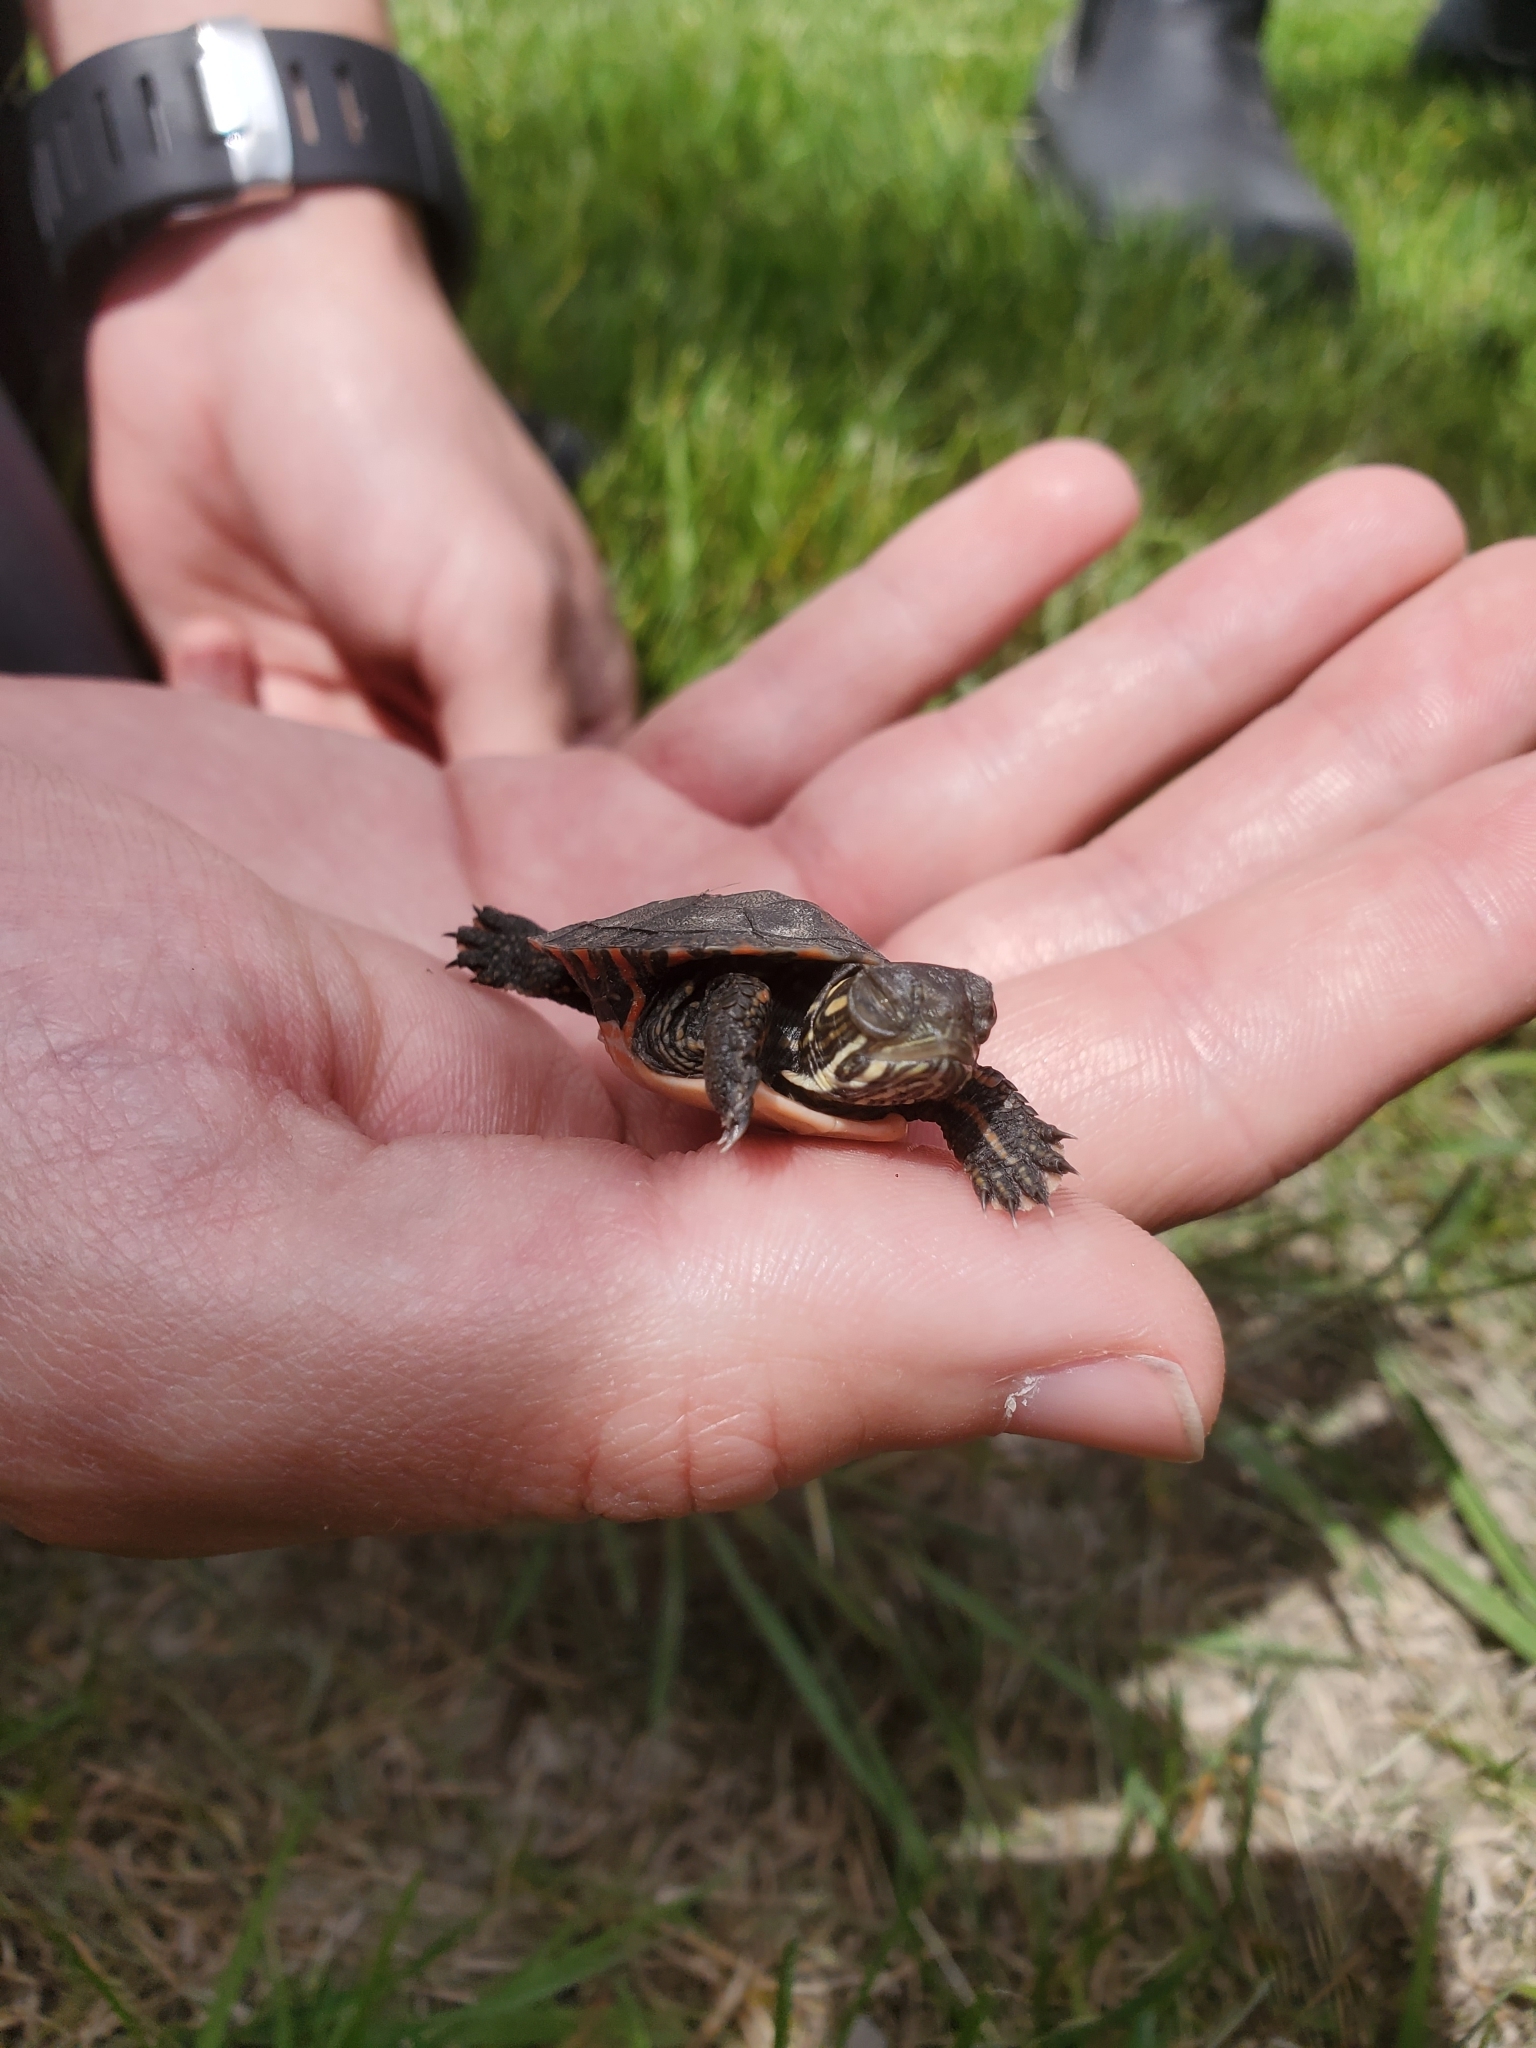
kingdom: Animalia
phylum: Chordata
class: Testudines
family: Emydidae
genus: Chrysemys
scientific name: Chrysemys picta
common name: Painted turtle
